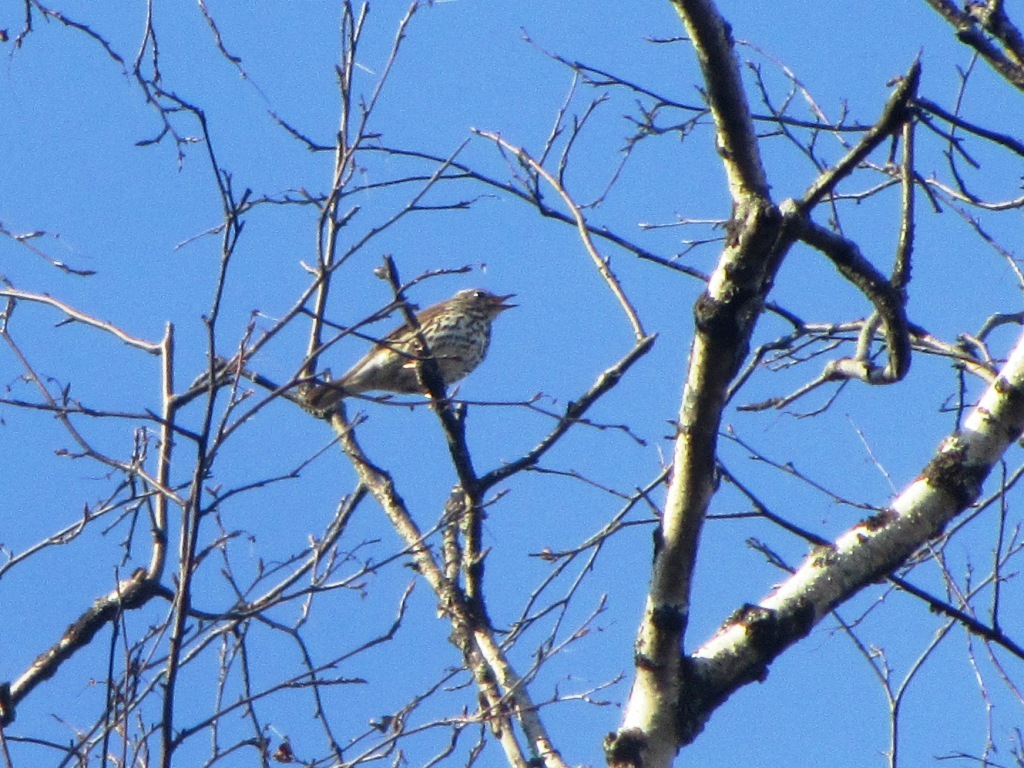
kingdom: Animalia
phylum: Chordata
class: Aves
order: Passeriformes
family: Turdidae
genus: Turdus
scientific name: Turdus philomelos
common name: Song thrush
